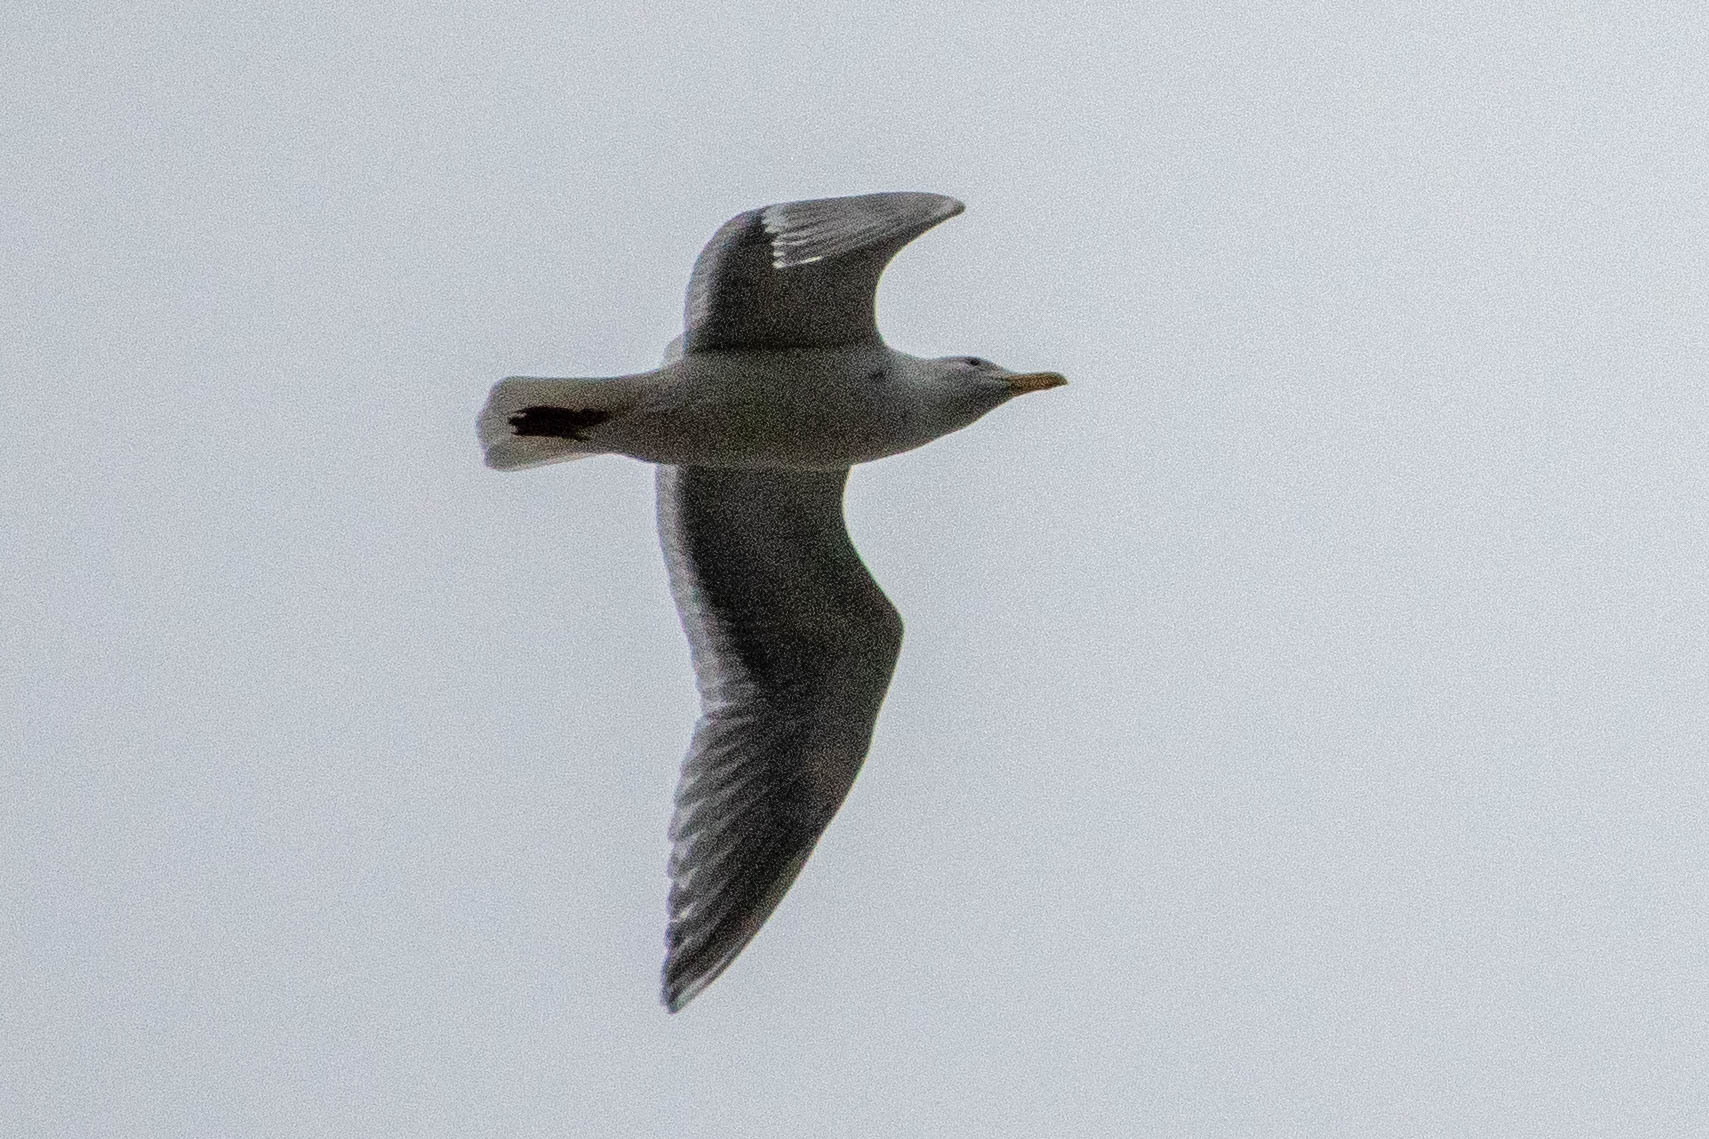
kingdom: Animalia
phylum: Chordata
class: Aves
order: Charadriiformes
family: Laridae
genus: Larus
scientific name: Larus
